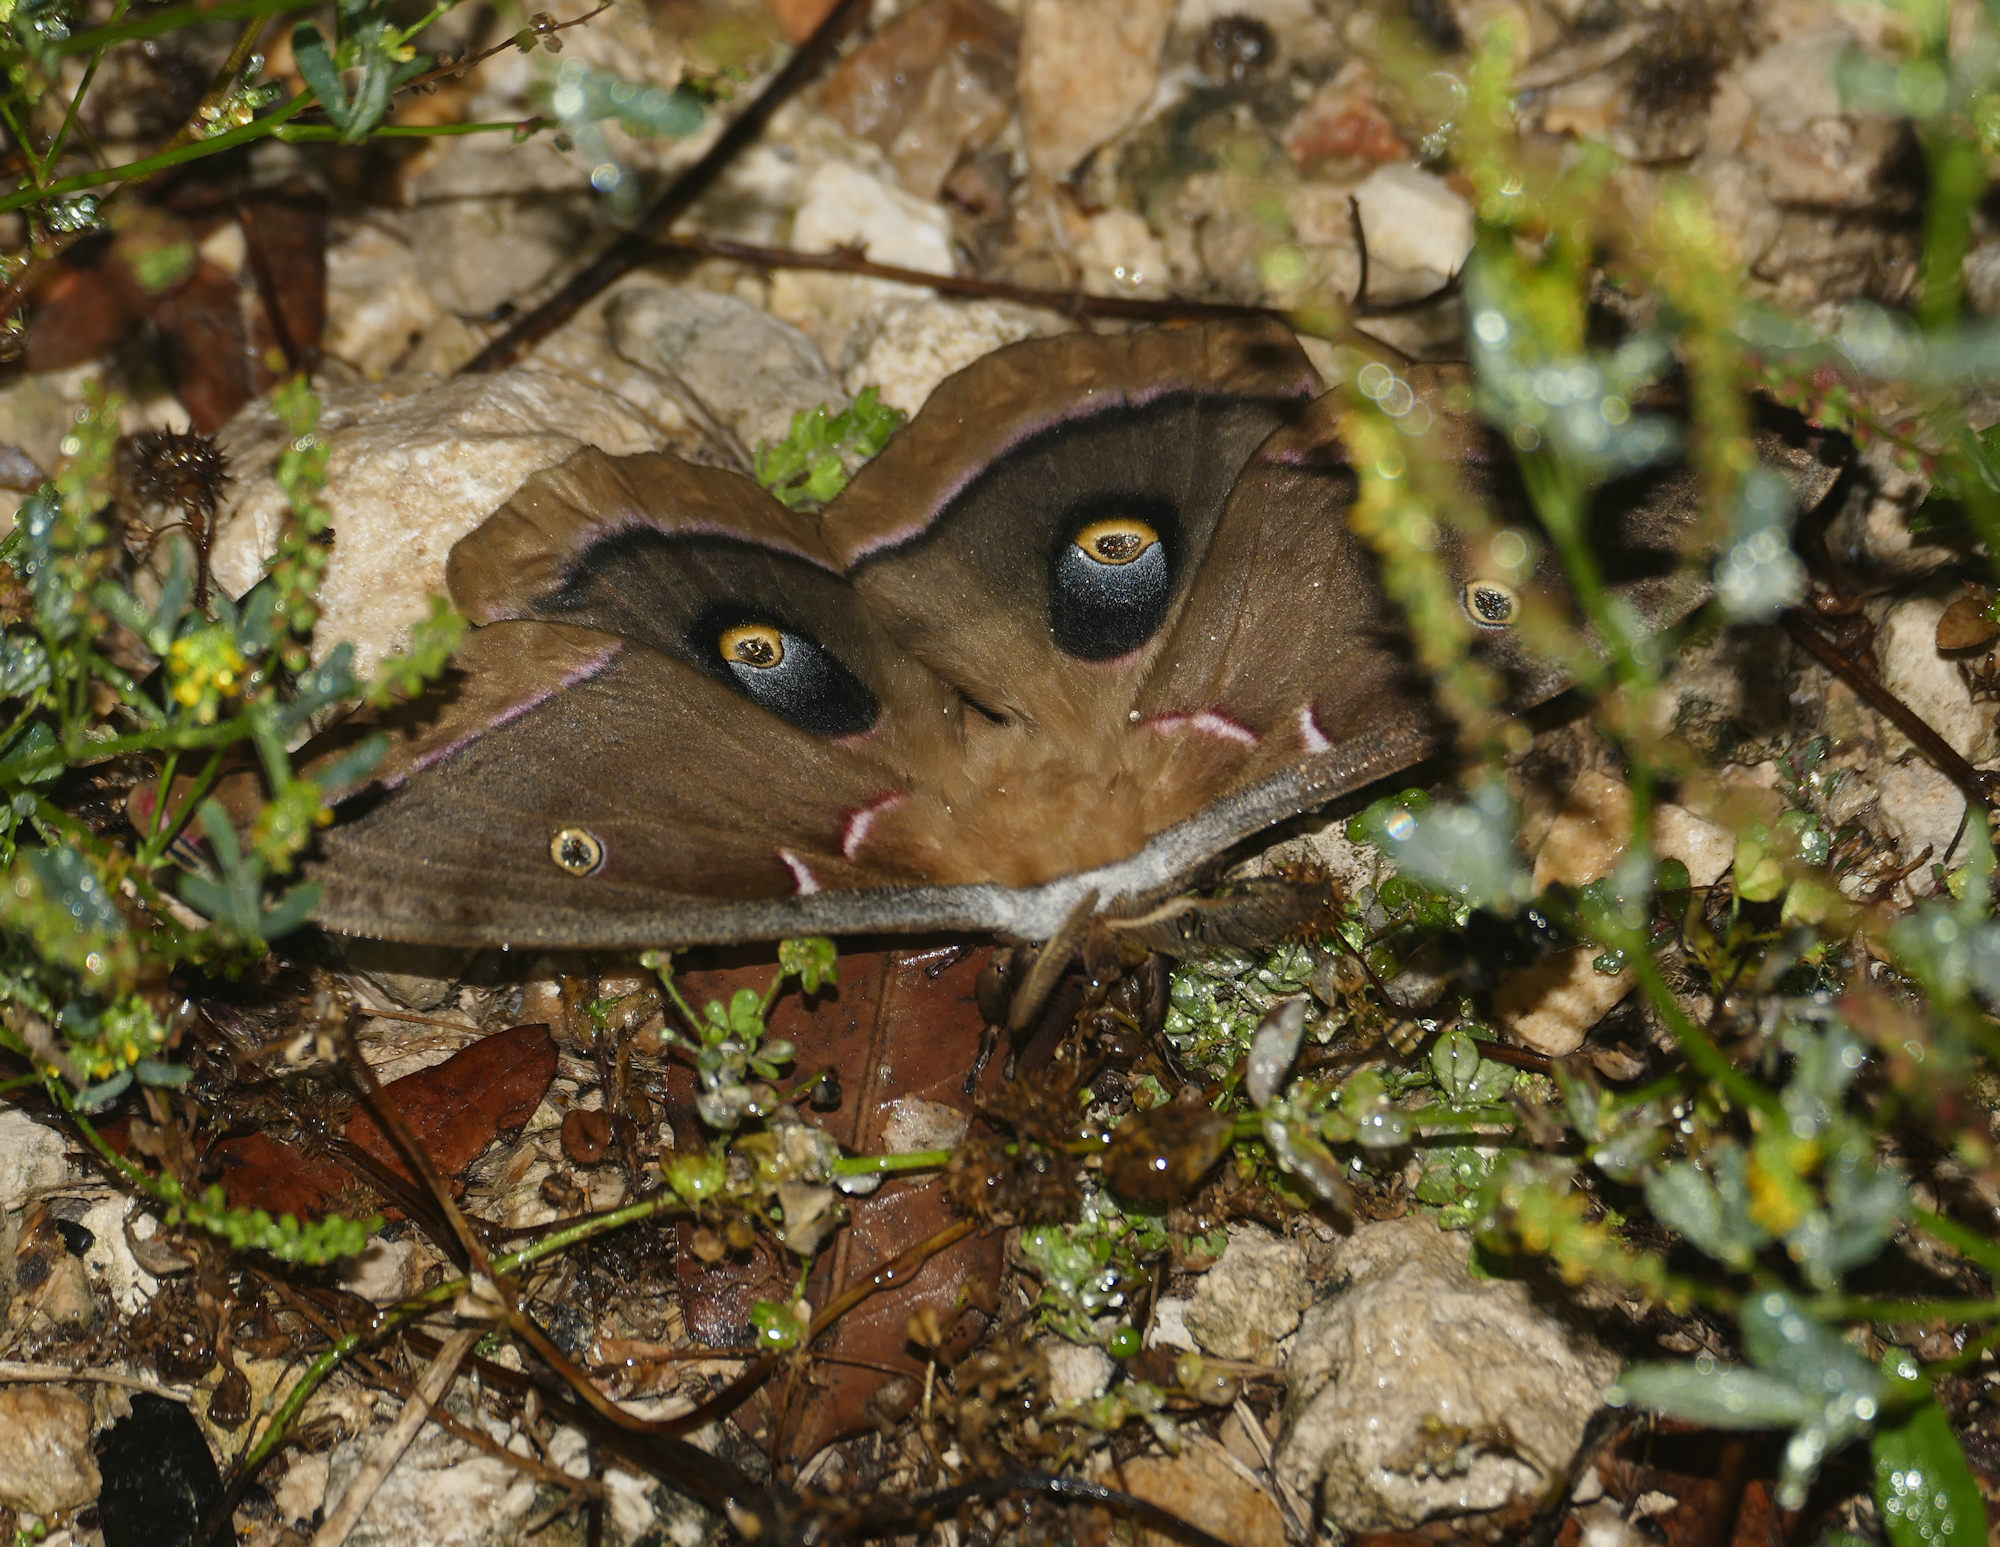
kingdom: Animalia
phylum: Arthropoda
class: Insecta
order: Lepidoptera
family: Saturniidae
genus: Antheraea
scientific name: Antheraea polyphemus
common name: Polyphemus moth
